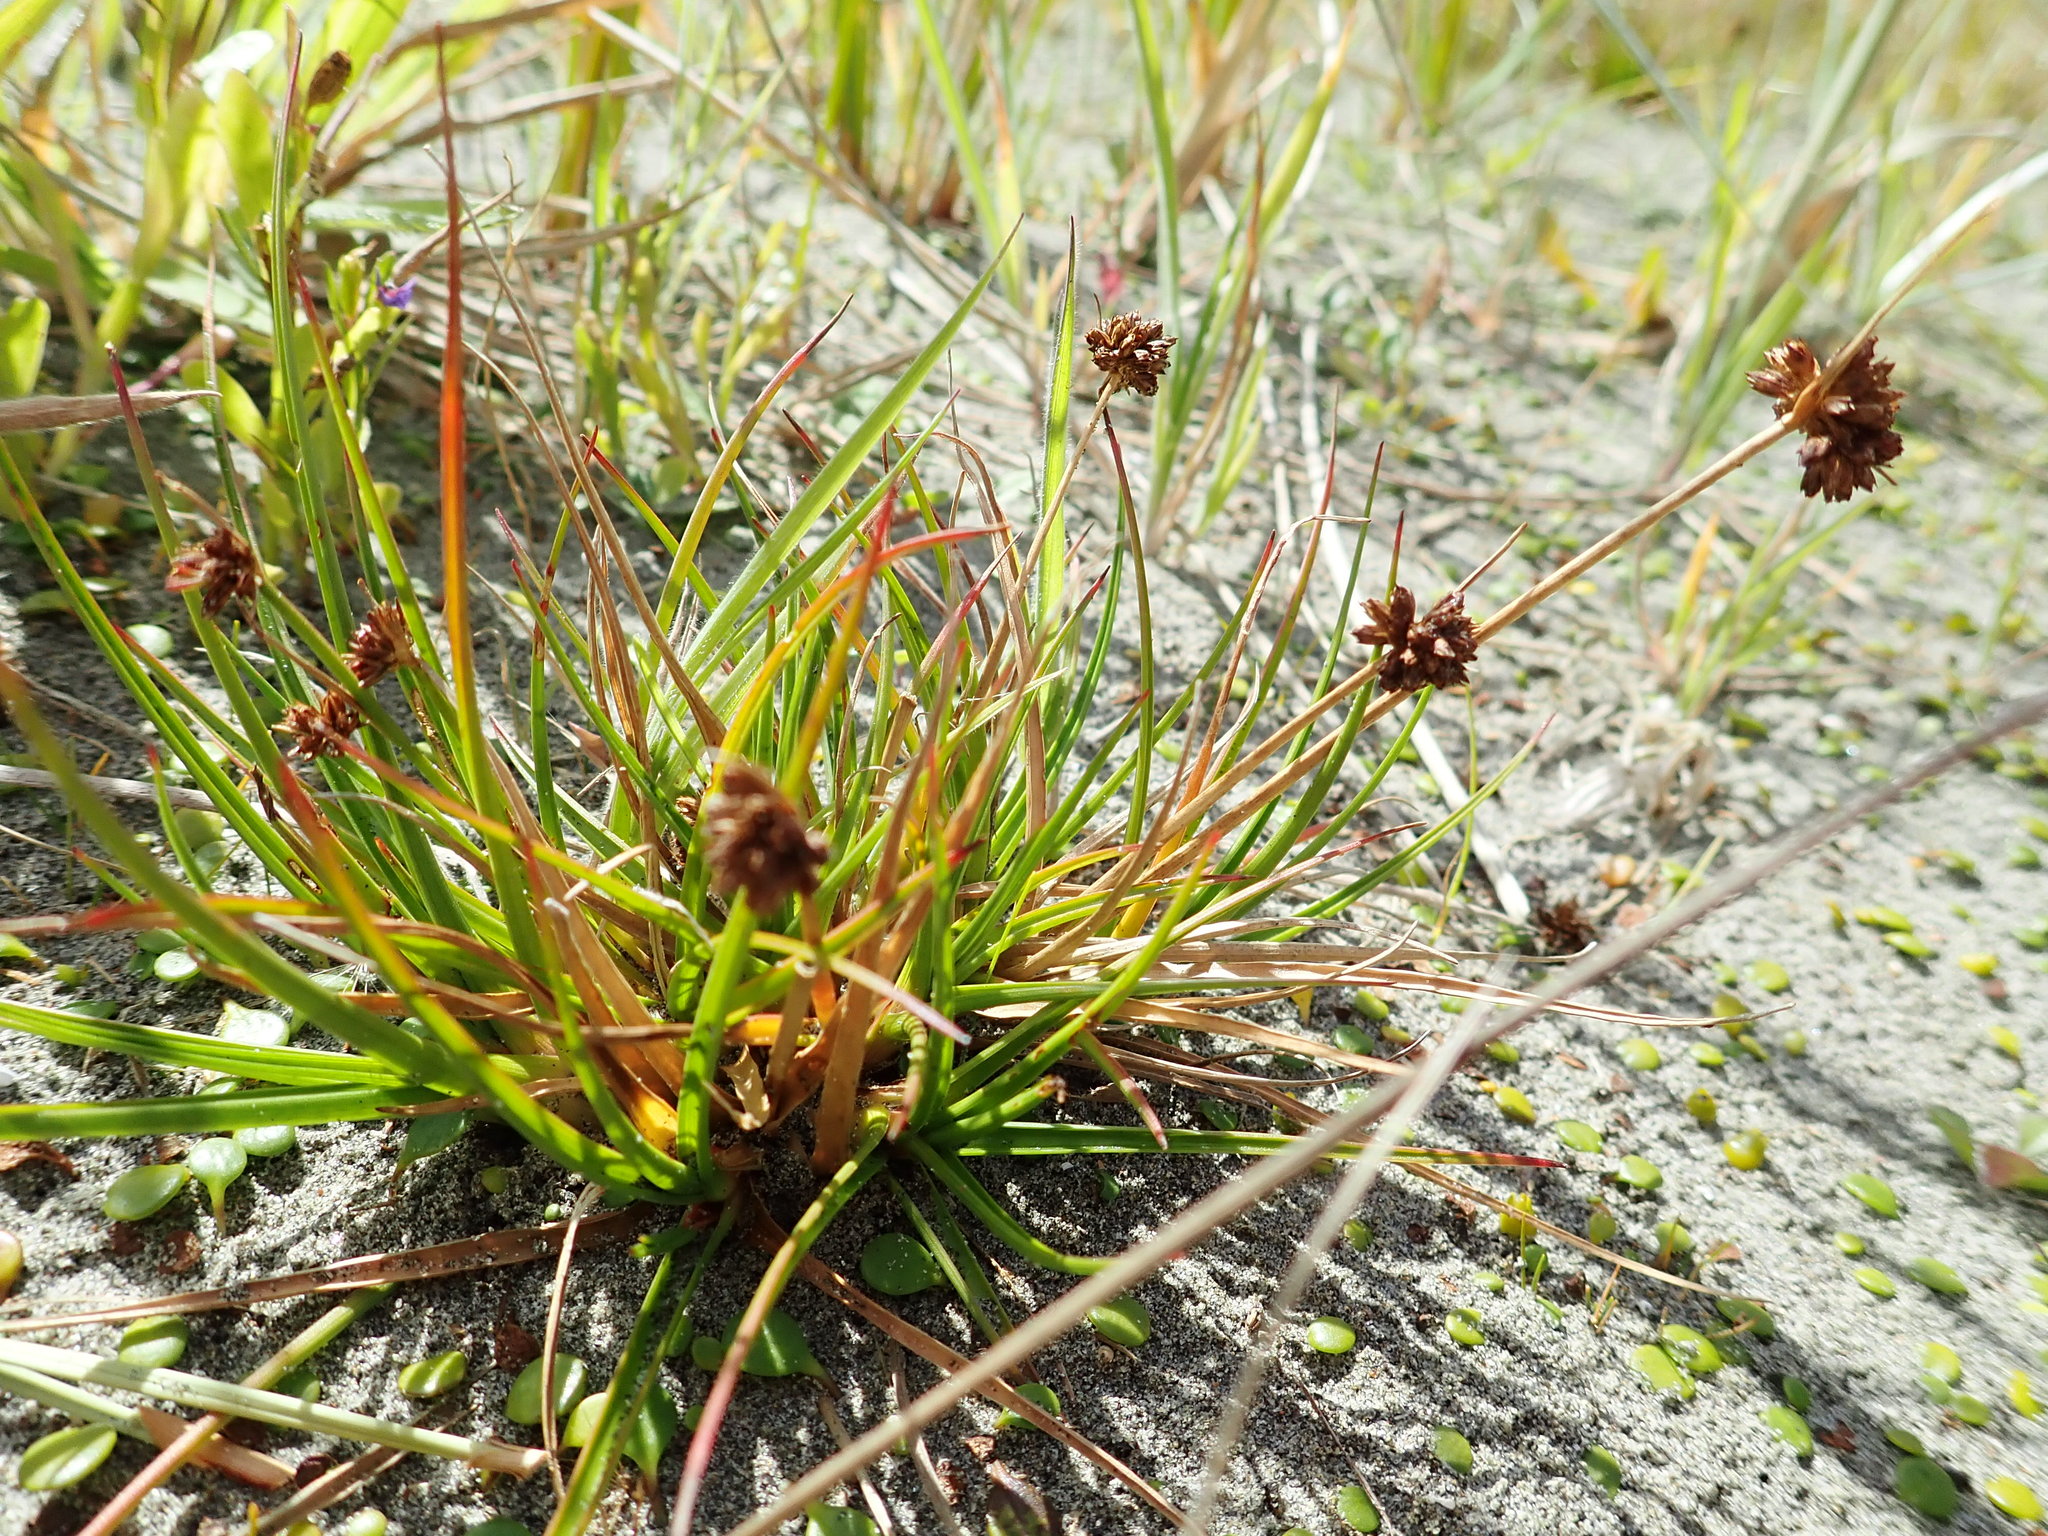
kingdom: Plantae
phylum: Tracheophyta
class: Liliopsida
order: Poales
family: Juncaceae
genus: Juncus
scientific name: Juncus caespiticius
